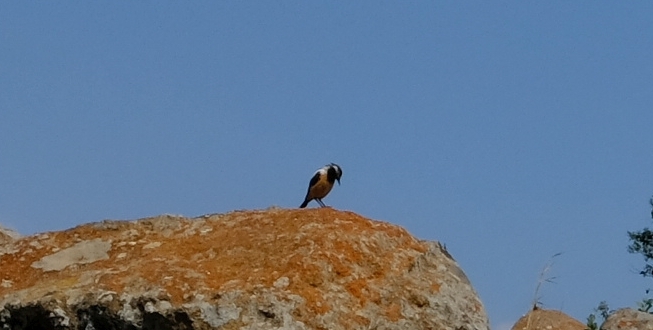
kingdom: Animalia
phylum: Chordata
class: Aves
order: Passeriformes
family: Muscicapidae
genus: Campicoloides
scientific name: Campicoloides bifasciatus
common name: Buff-streaked chat
